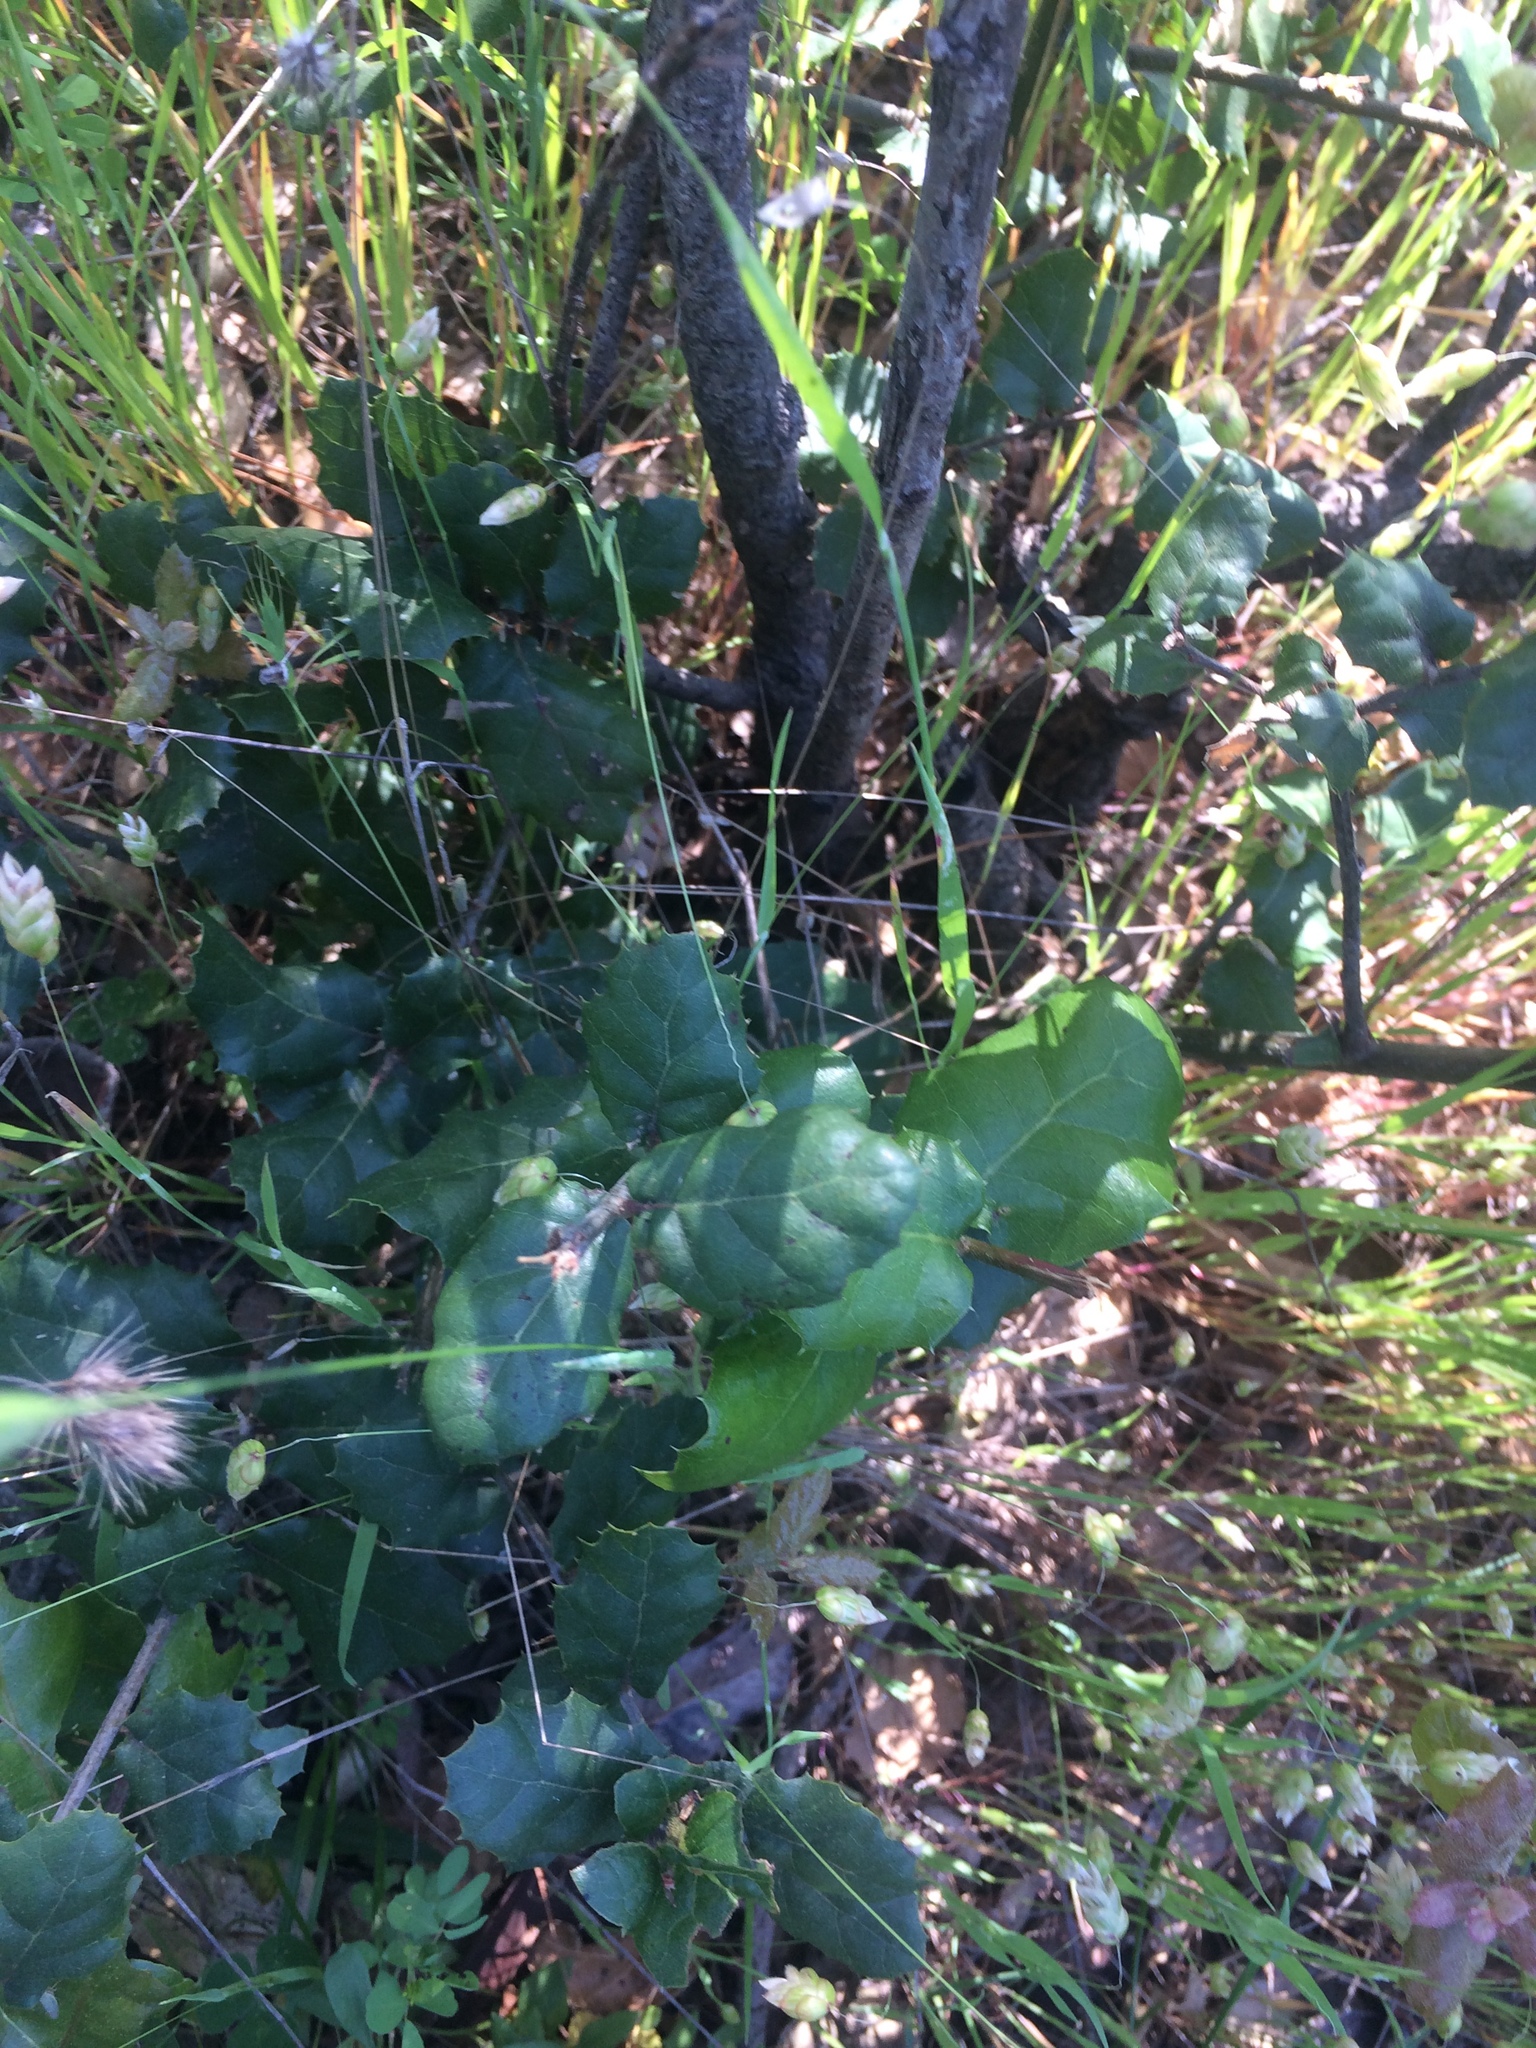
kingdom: Plantae
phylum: Tracheophyta
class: Magnoliopsida
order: Fagales
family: Fagaceae
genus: Quercus
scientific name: Quercus wislizeni
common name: Interior live oak
